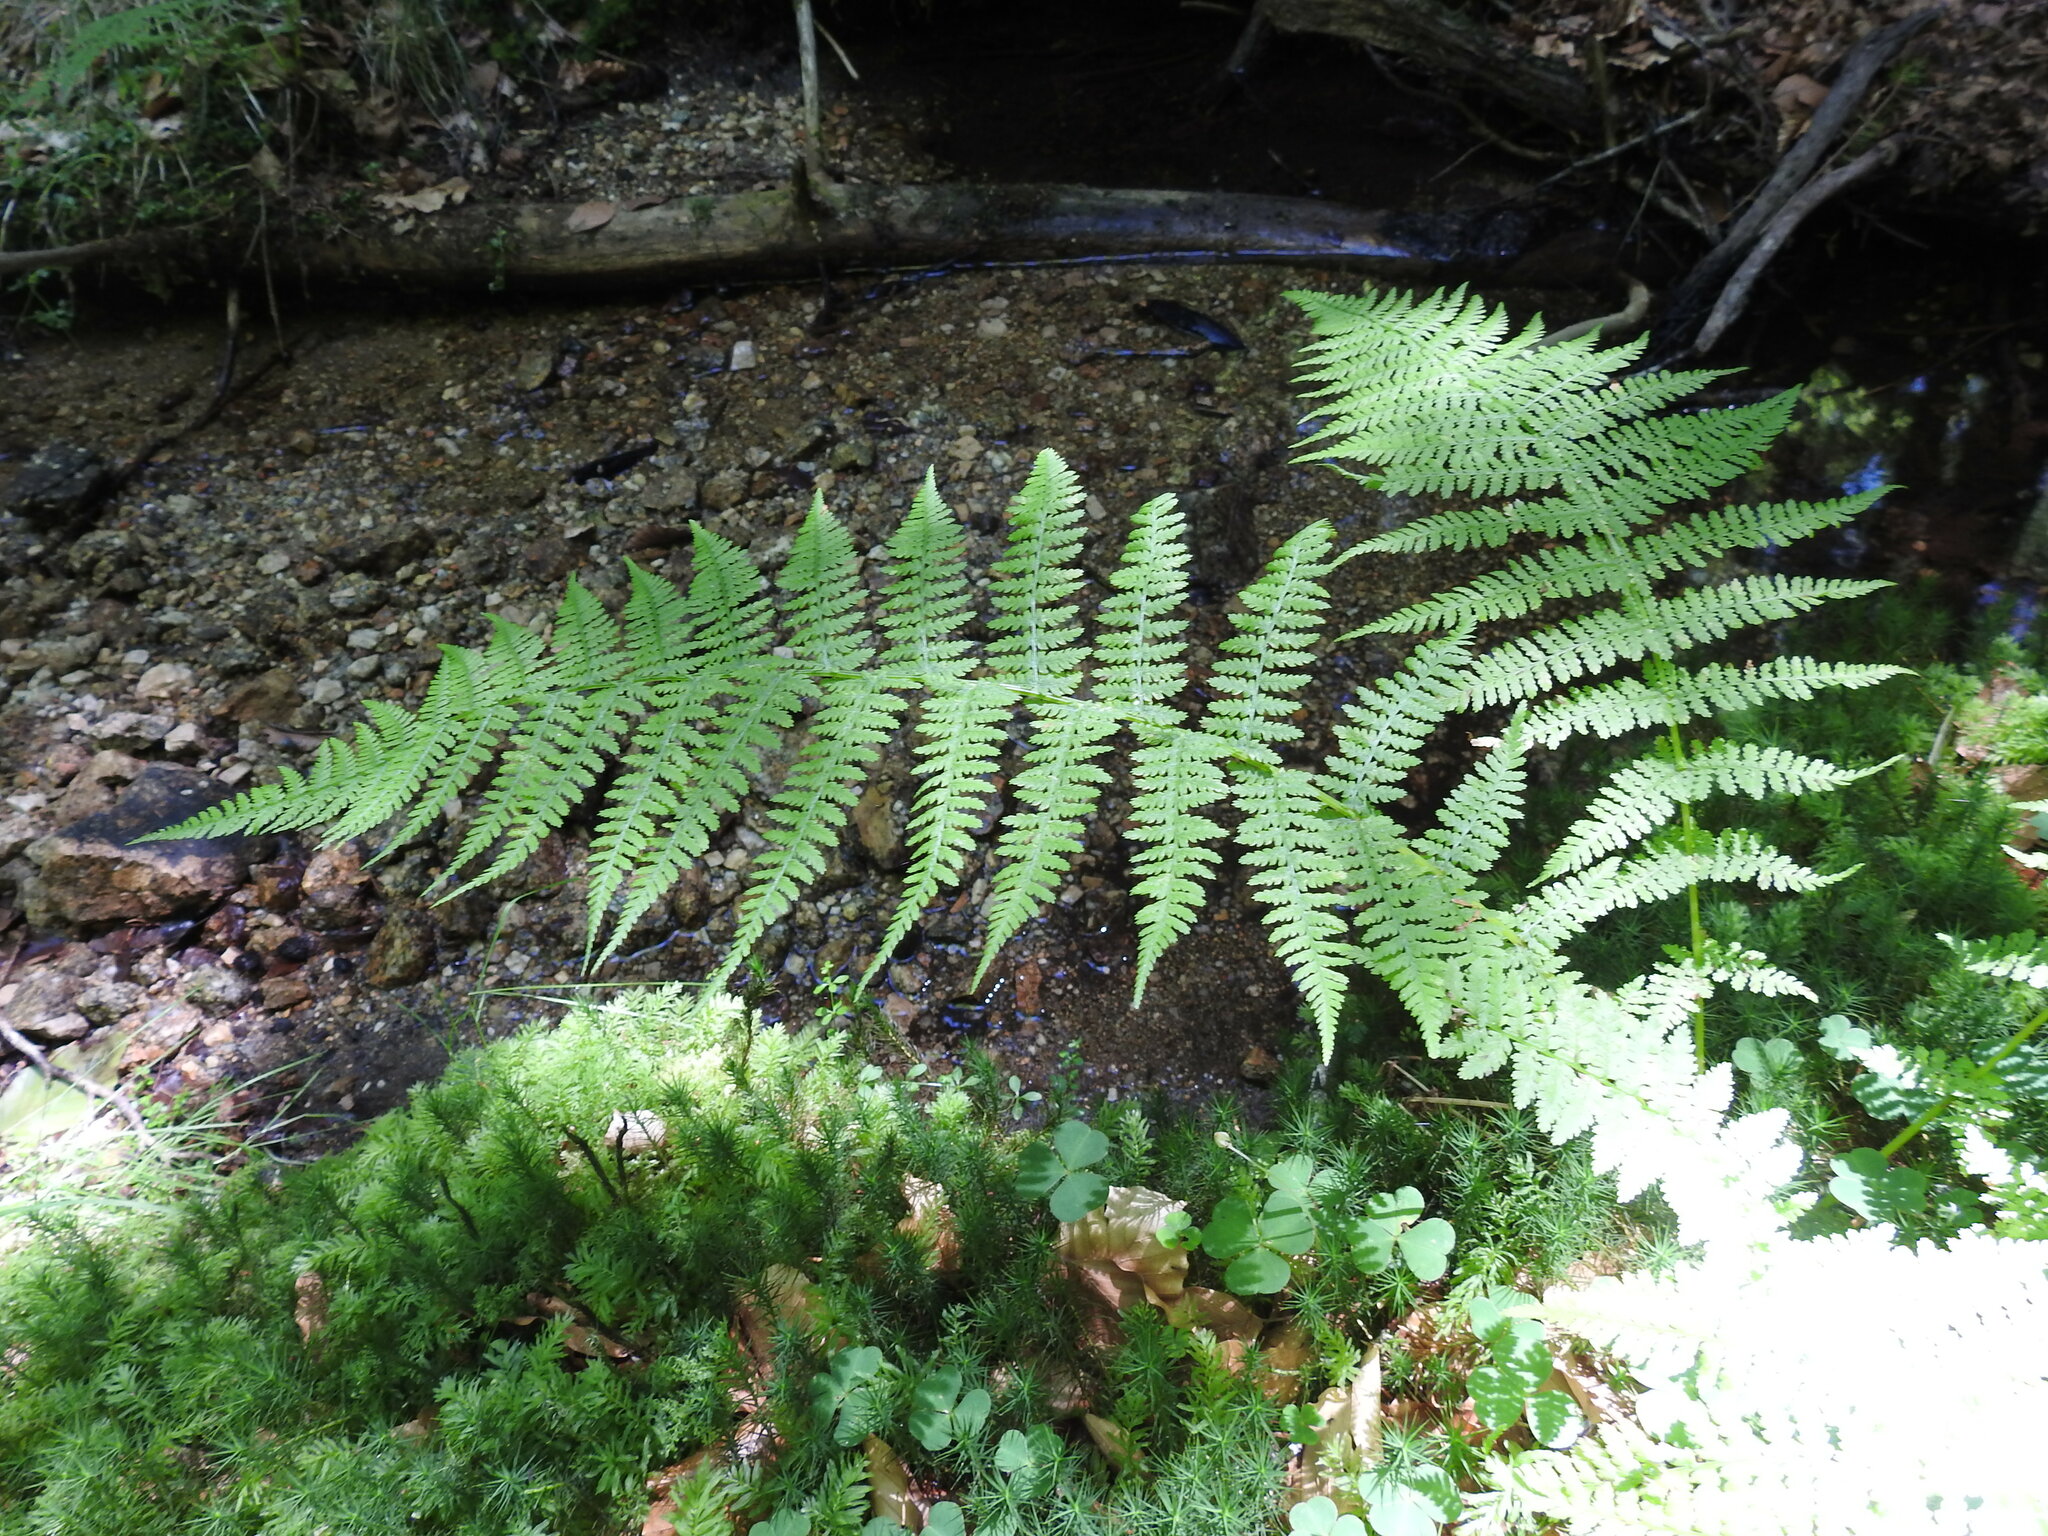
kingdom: Plantae
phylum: Tracheophyta
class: Polypodiopsida
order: Polypodiales
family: Athyriaceae
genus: Athyrium
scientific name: Athyrium filix-femina
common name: Lady fern
